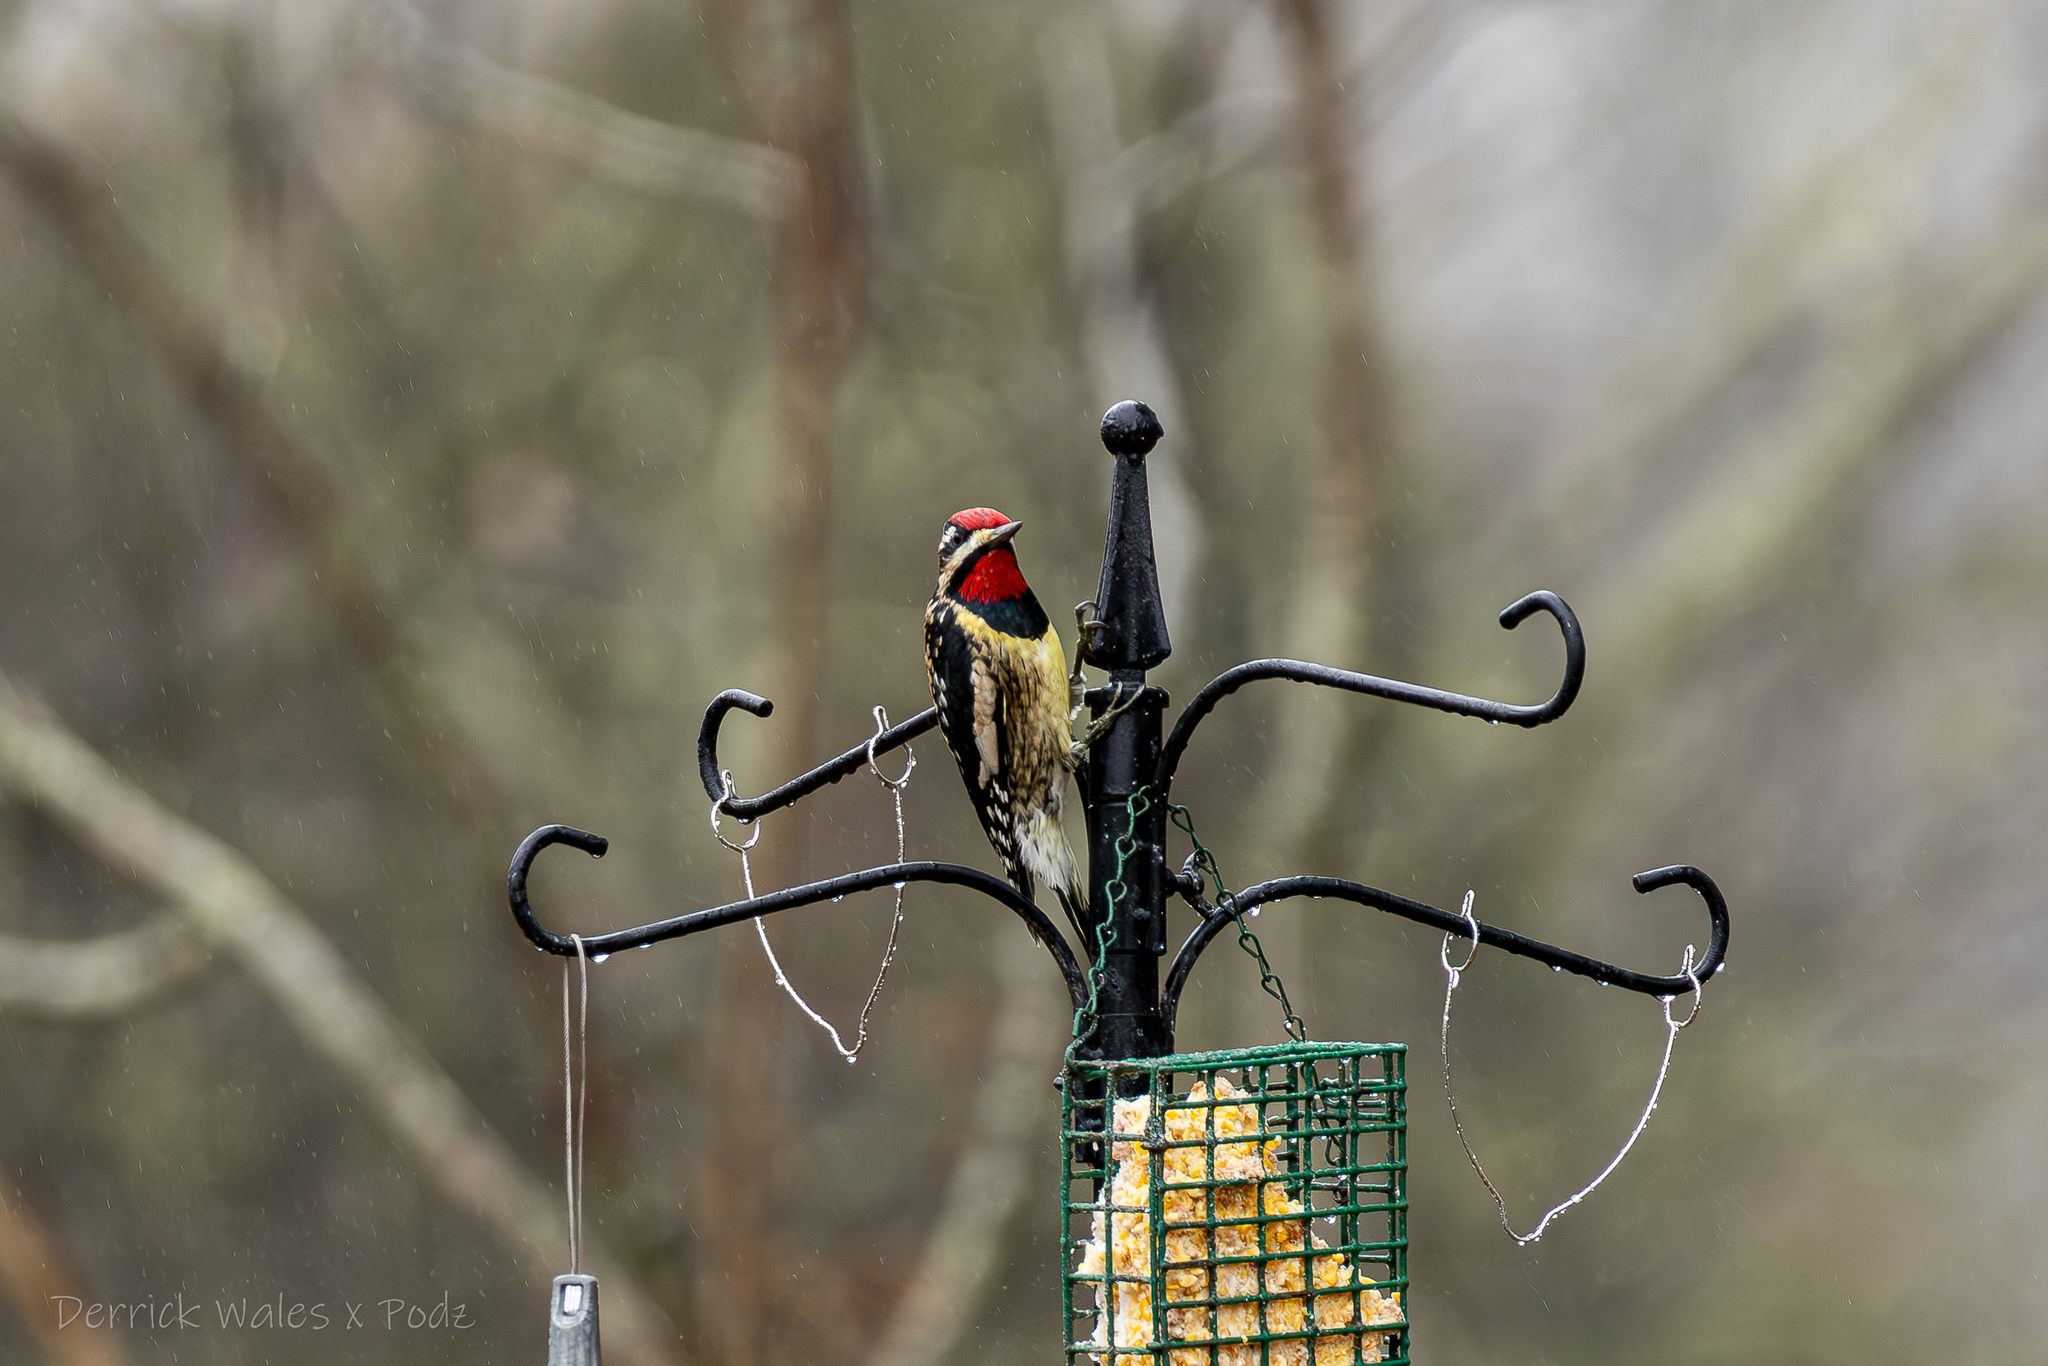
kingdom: Animalia
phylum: Chordata
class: Aves
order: Piciformes
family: Picidae
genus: Sphyrapicus
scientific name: Sphyrapicus varius
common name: Yellow-bellied sapsucker
